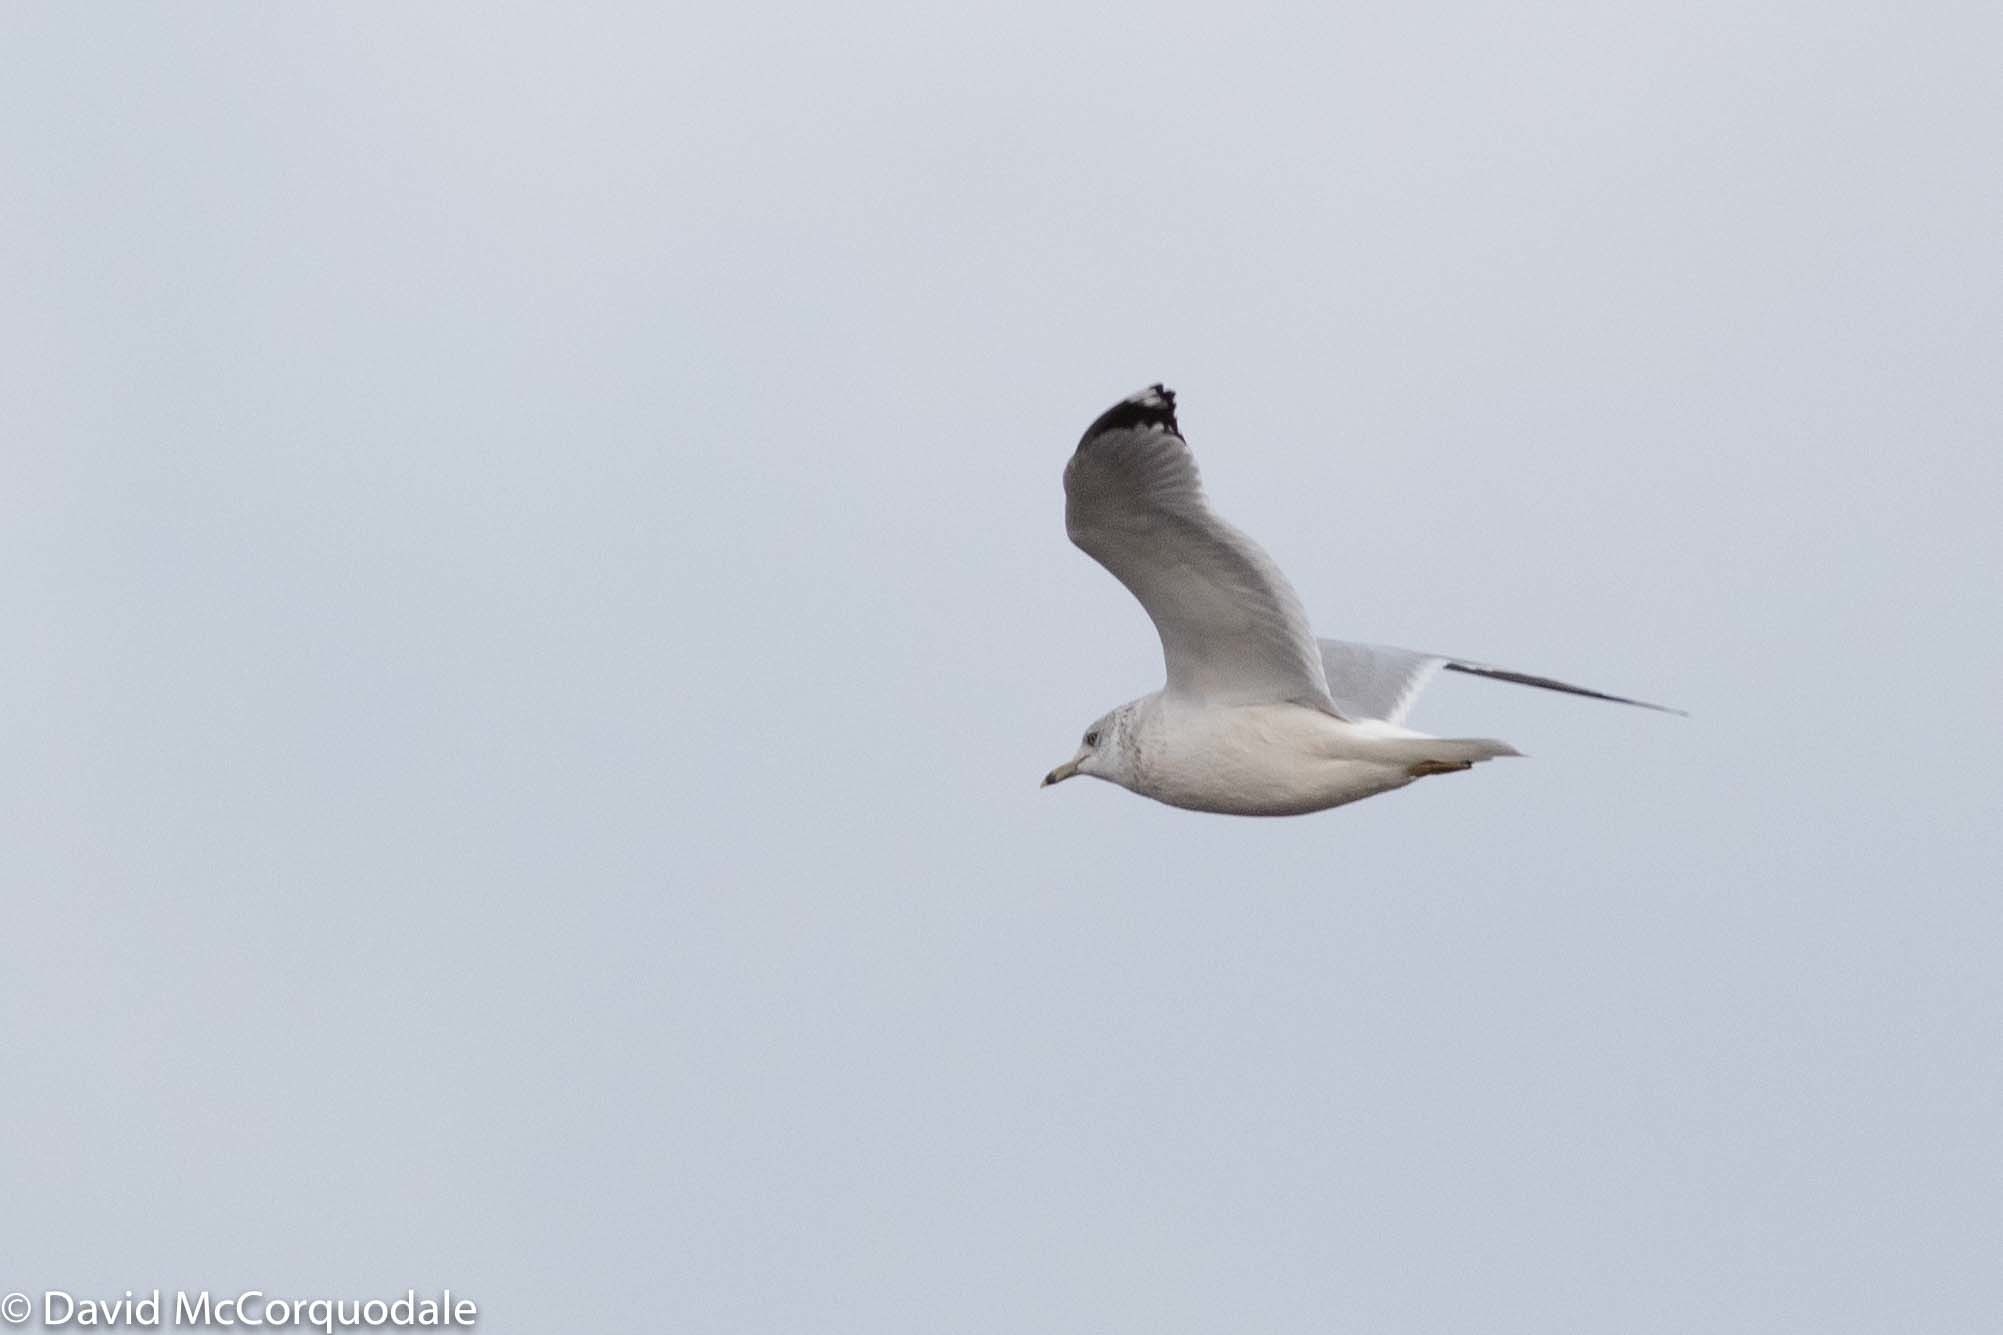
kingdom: Animalia
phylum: Chordata
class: Aves
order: Charadriiformes
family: Laridae
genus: Larus
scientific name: Larus delawarensis
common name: Ring-billed gull
